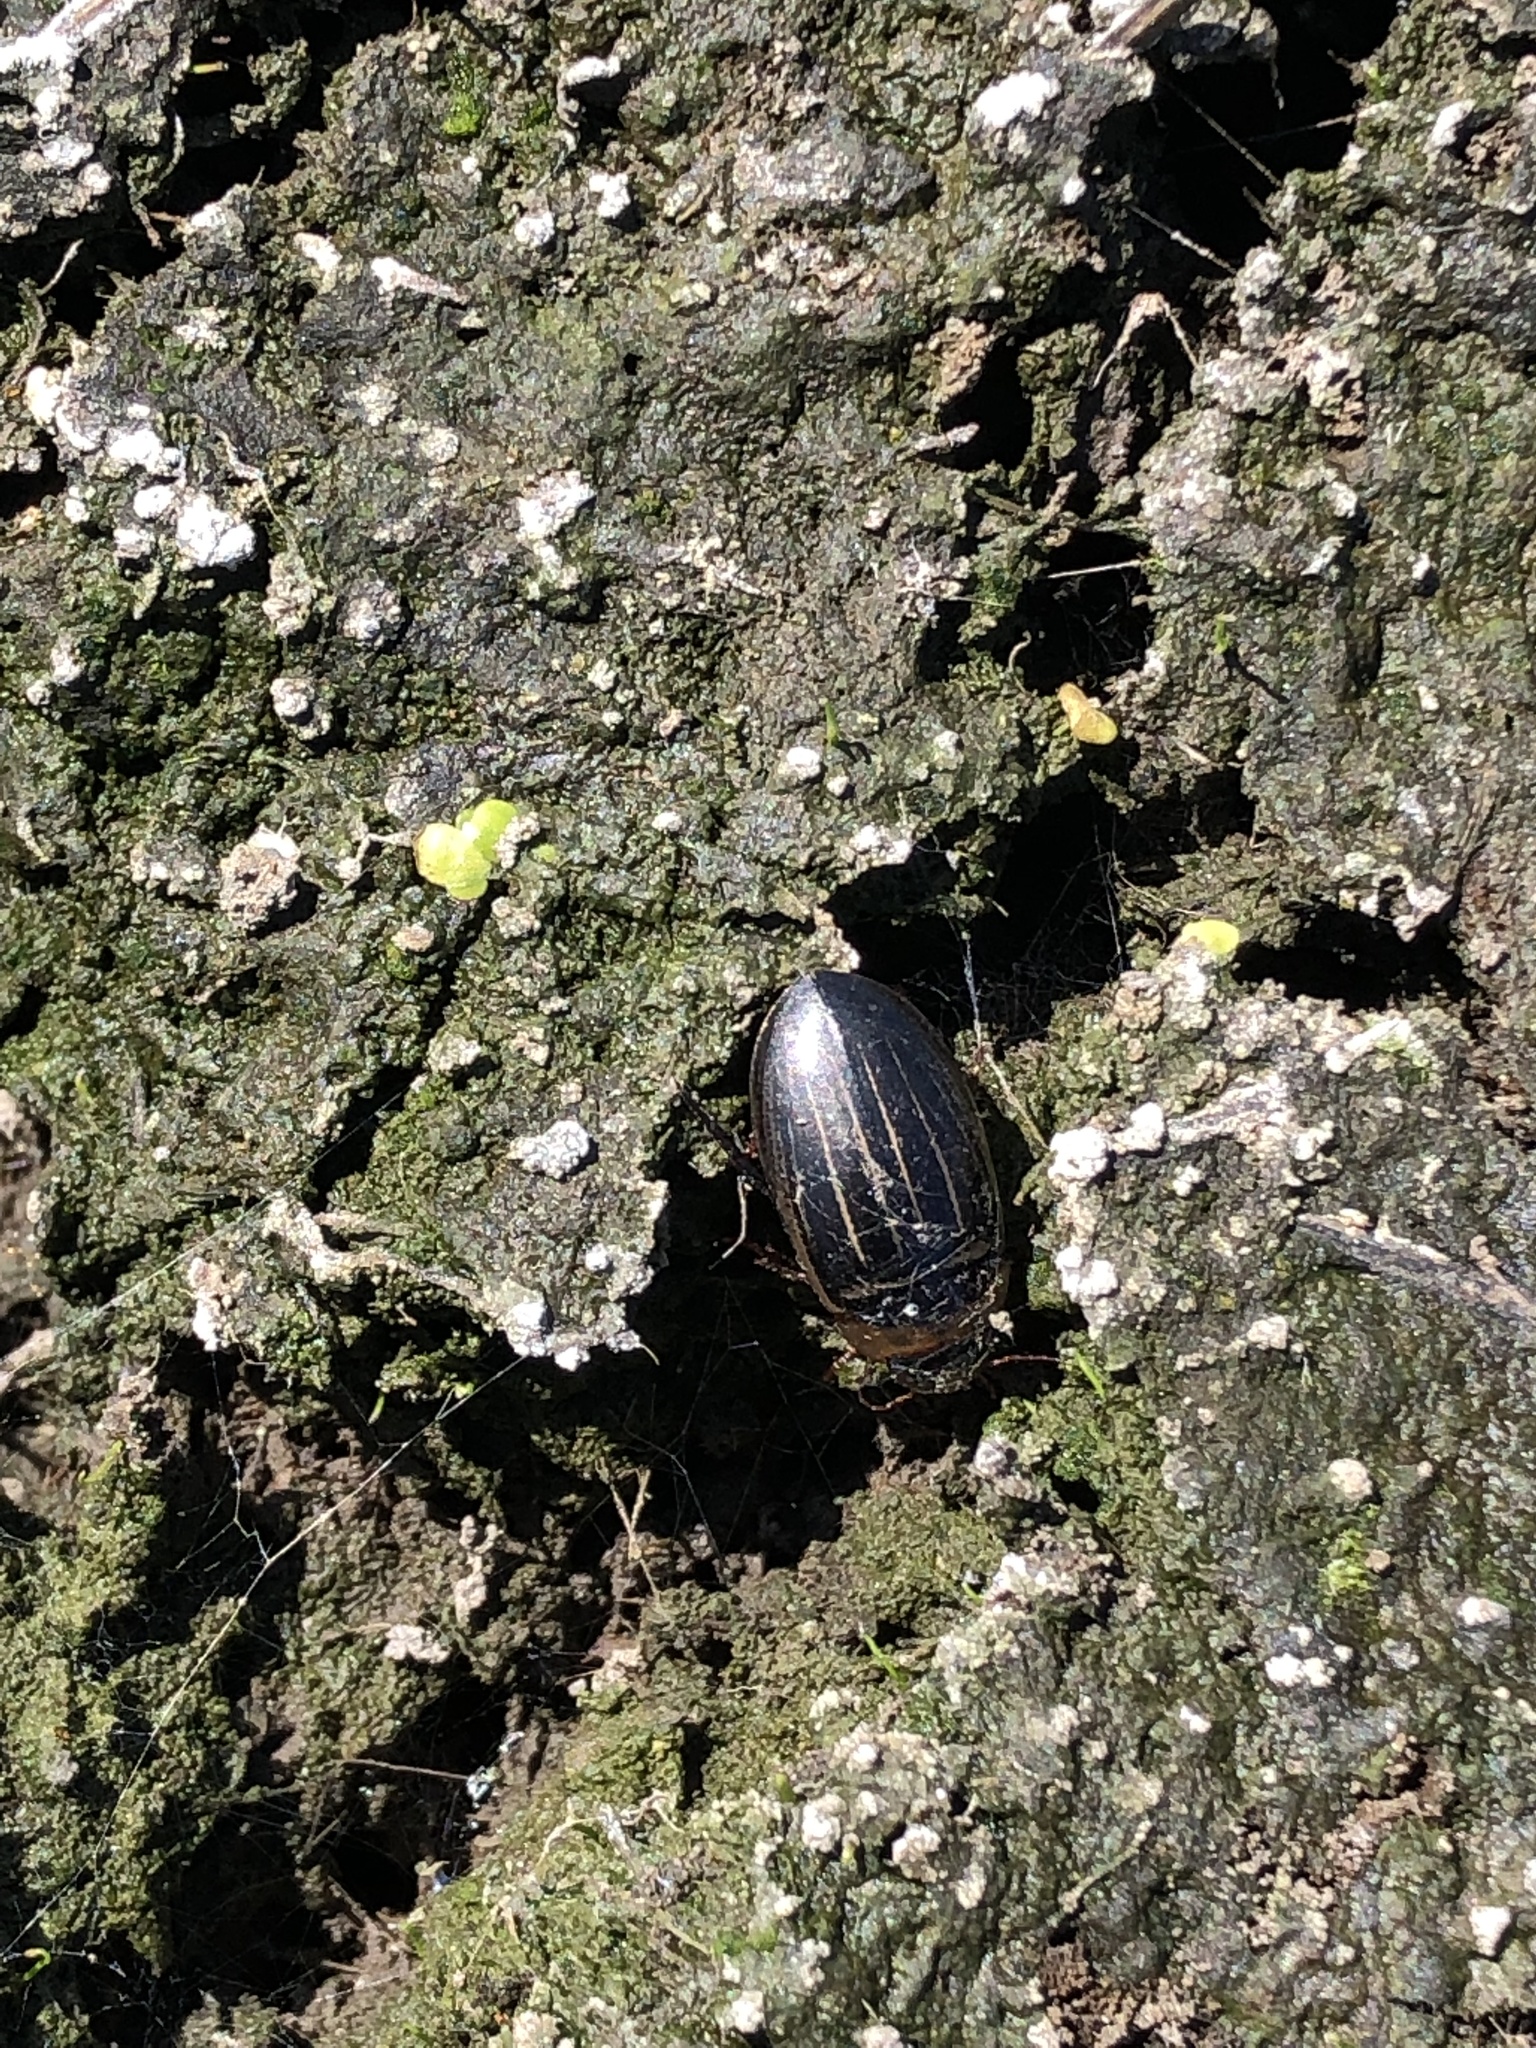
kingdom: Animalia
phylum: Arthropoda
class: Insecta
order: Coleoptera
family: Dytiscidae
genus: Hydaticus
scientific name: Hydaticus aruspex
